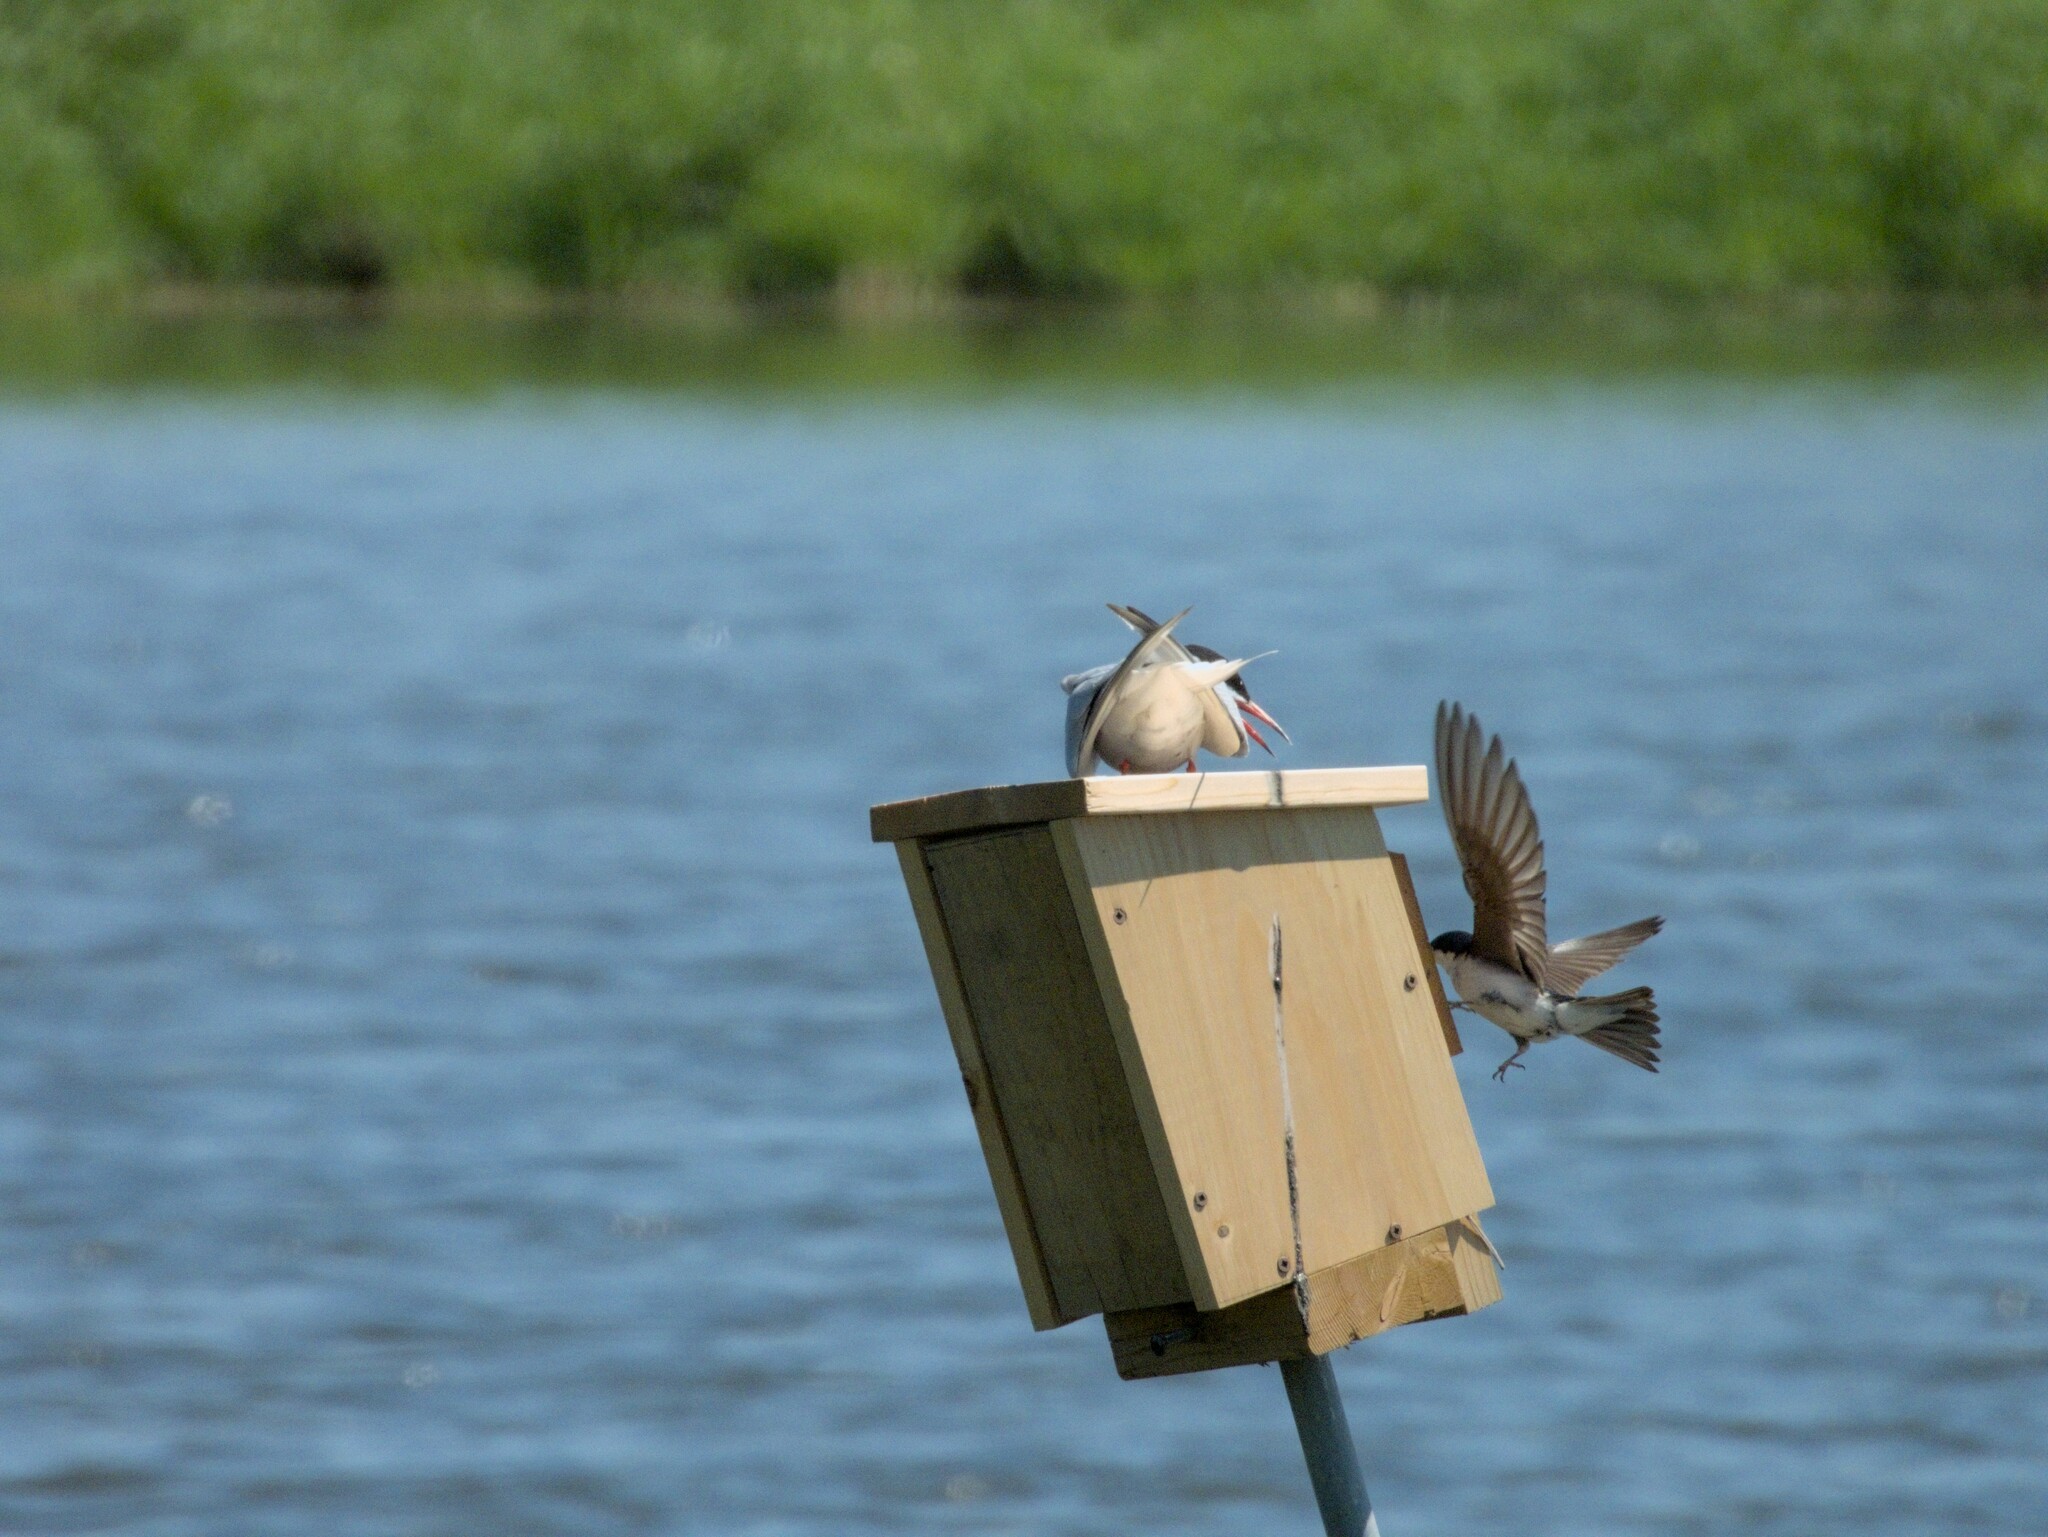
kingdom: Animalia
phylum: Chordata
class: Aves
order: Charadriiformes
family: Laridae
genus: Sterna
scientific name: Sterna hirundo
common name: Common tern
